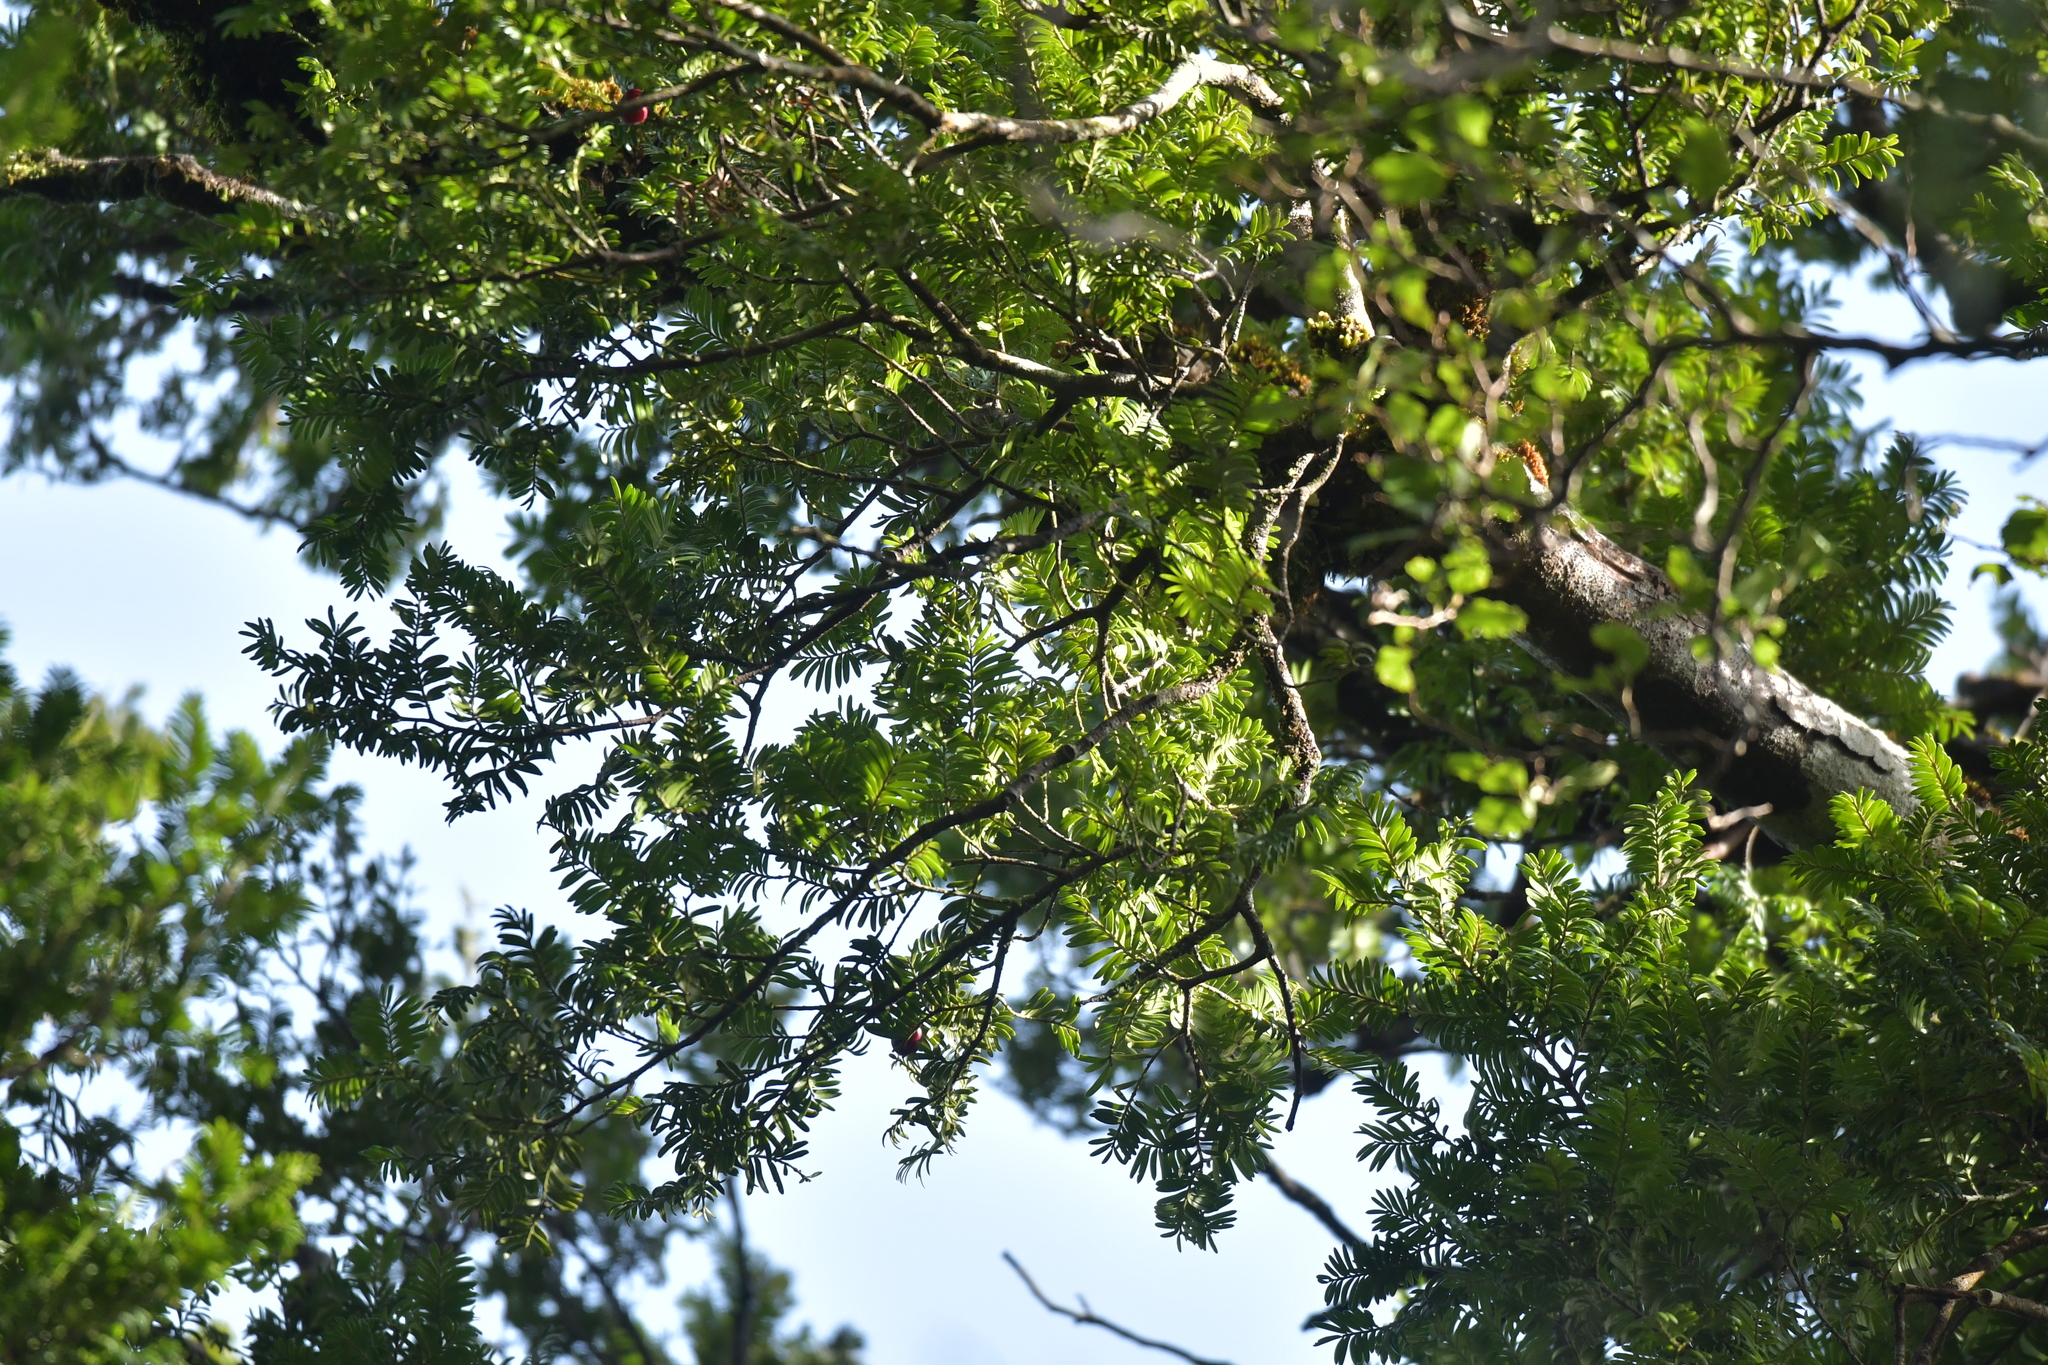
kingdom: Plantae
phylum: Tracheophyta
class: Pinopsida
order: Pinales
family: Podocarpaceae
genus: Prumnopitys
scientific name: Prumnopitys ferruginea
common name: Brown pine
